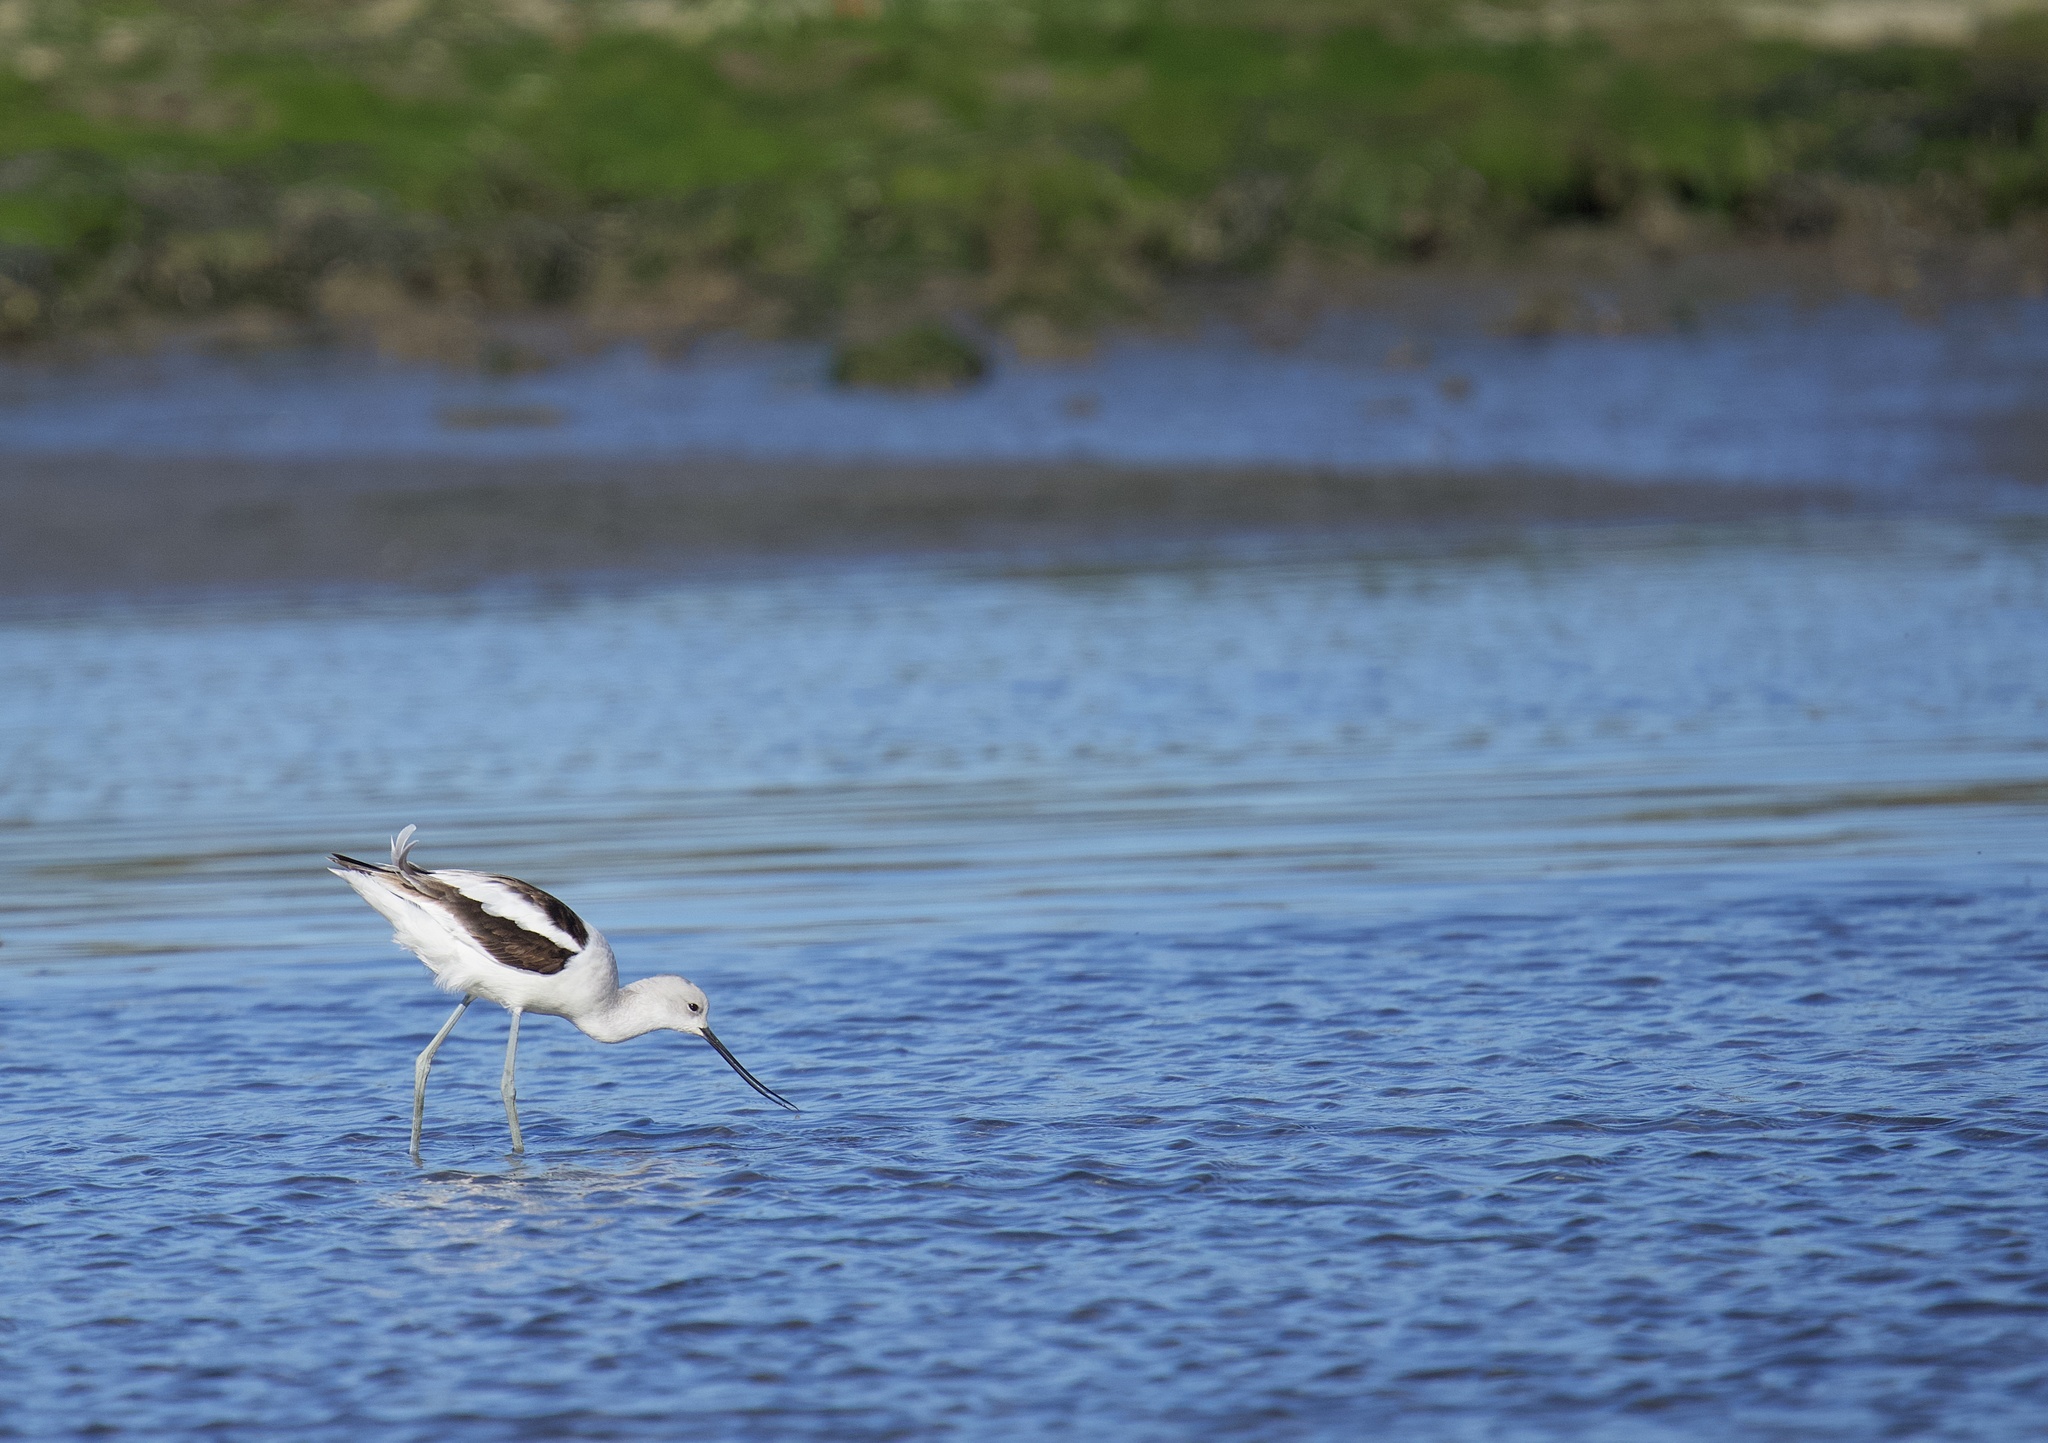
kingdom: Animalia
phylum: Chordata
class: Aves
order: Charadriiformes
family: Recurvirostridae
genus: Recurvirostra
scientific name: Recurvirostra americana
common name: American avocet
